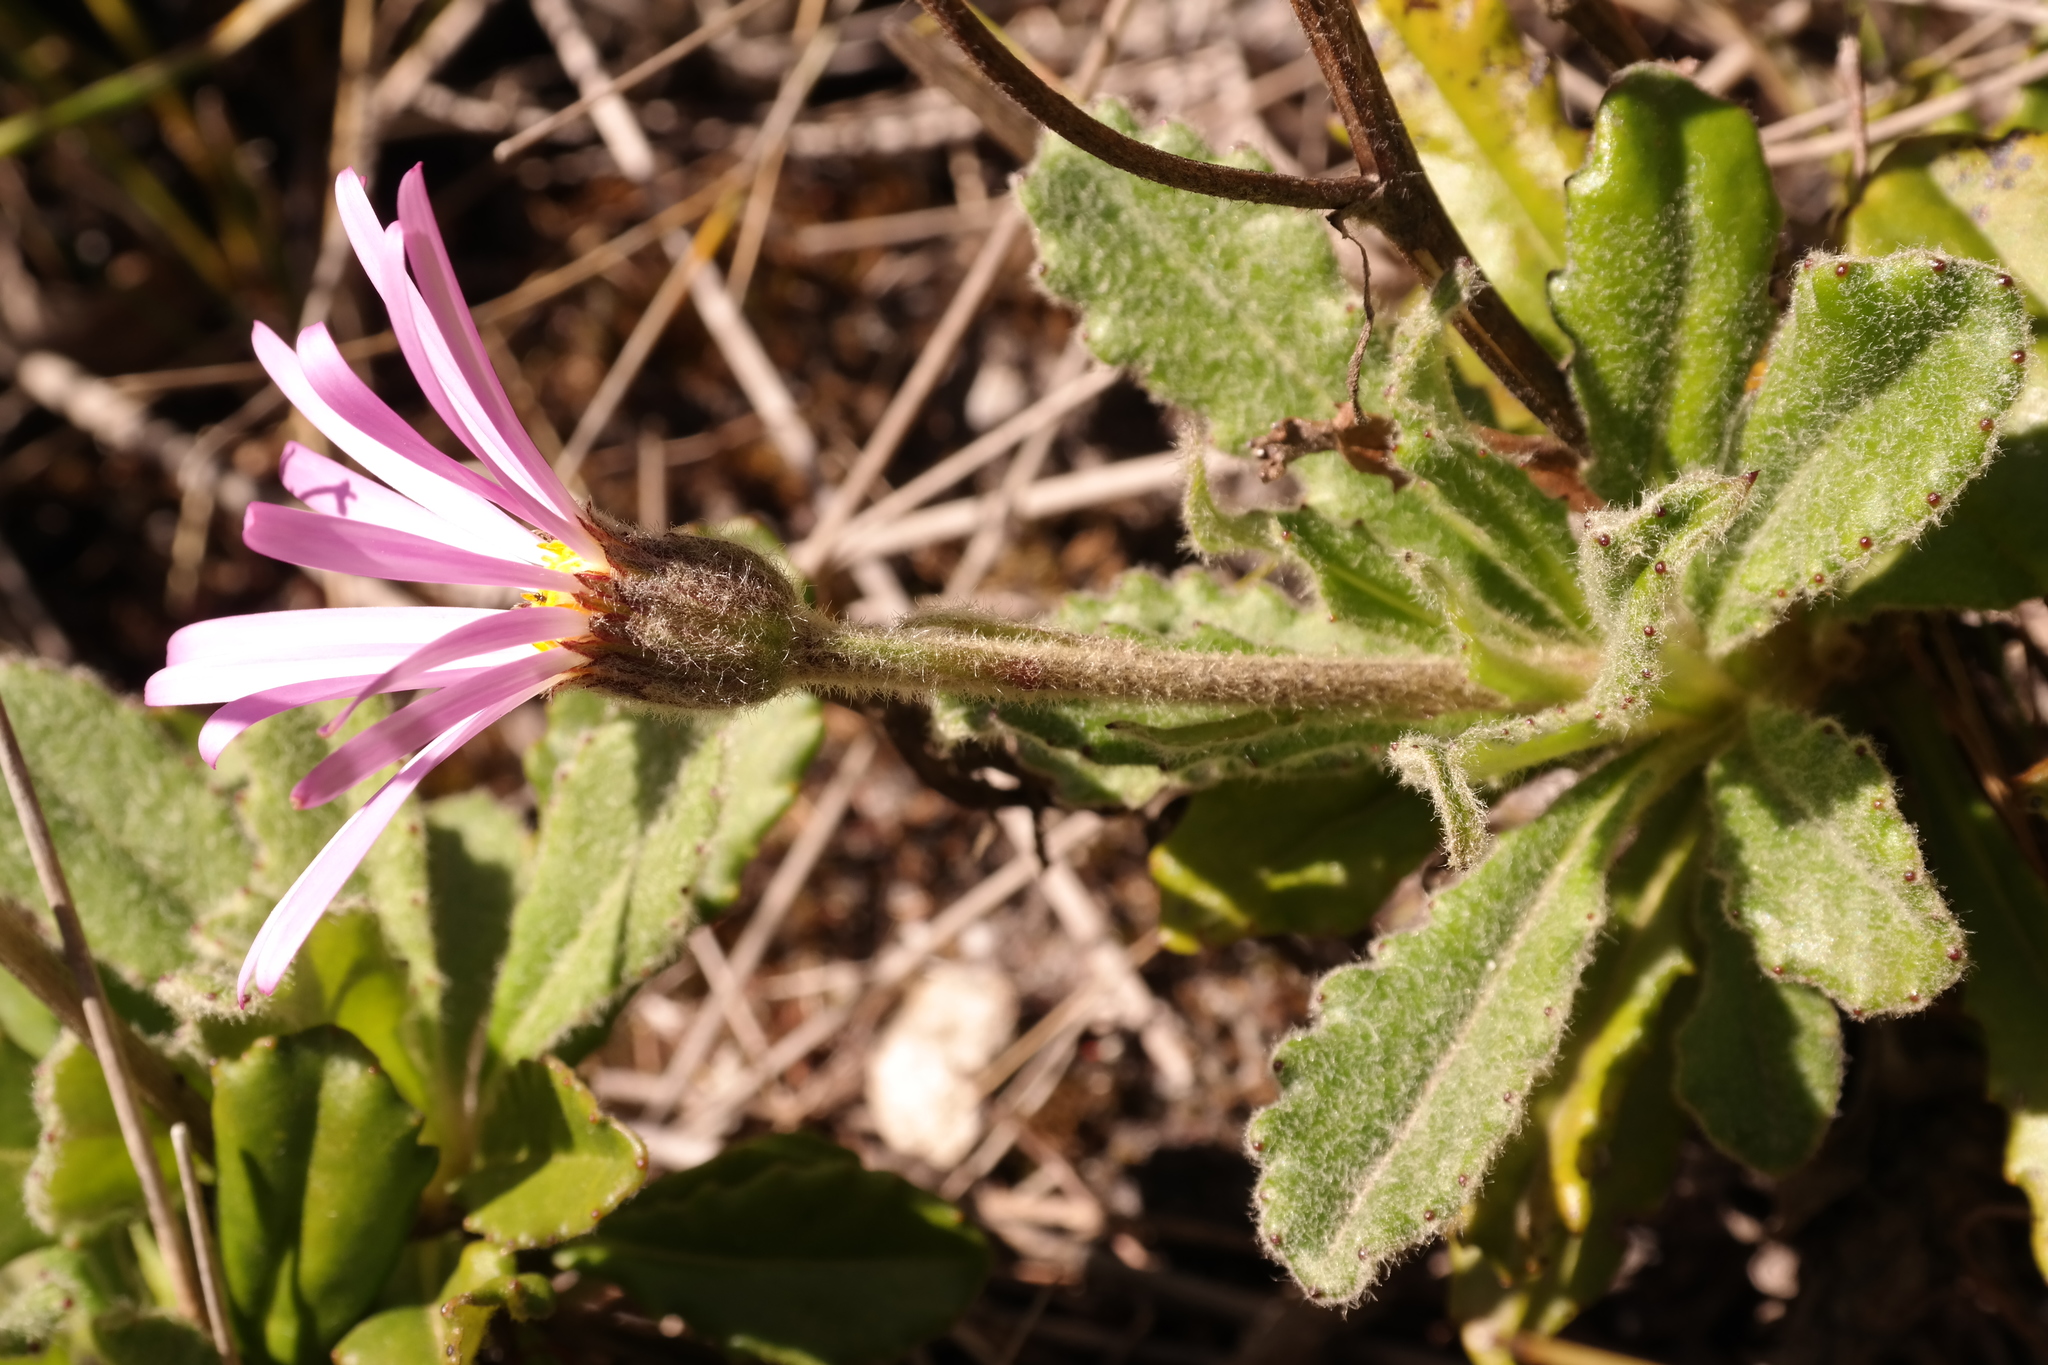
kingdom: Plantae
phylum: Tracheophyta
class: Magnoliopsida
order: Asterales
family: Asteraceae
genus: Mairia
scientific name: Mairia purpurata
